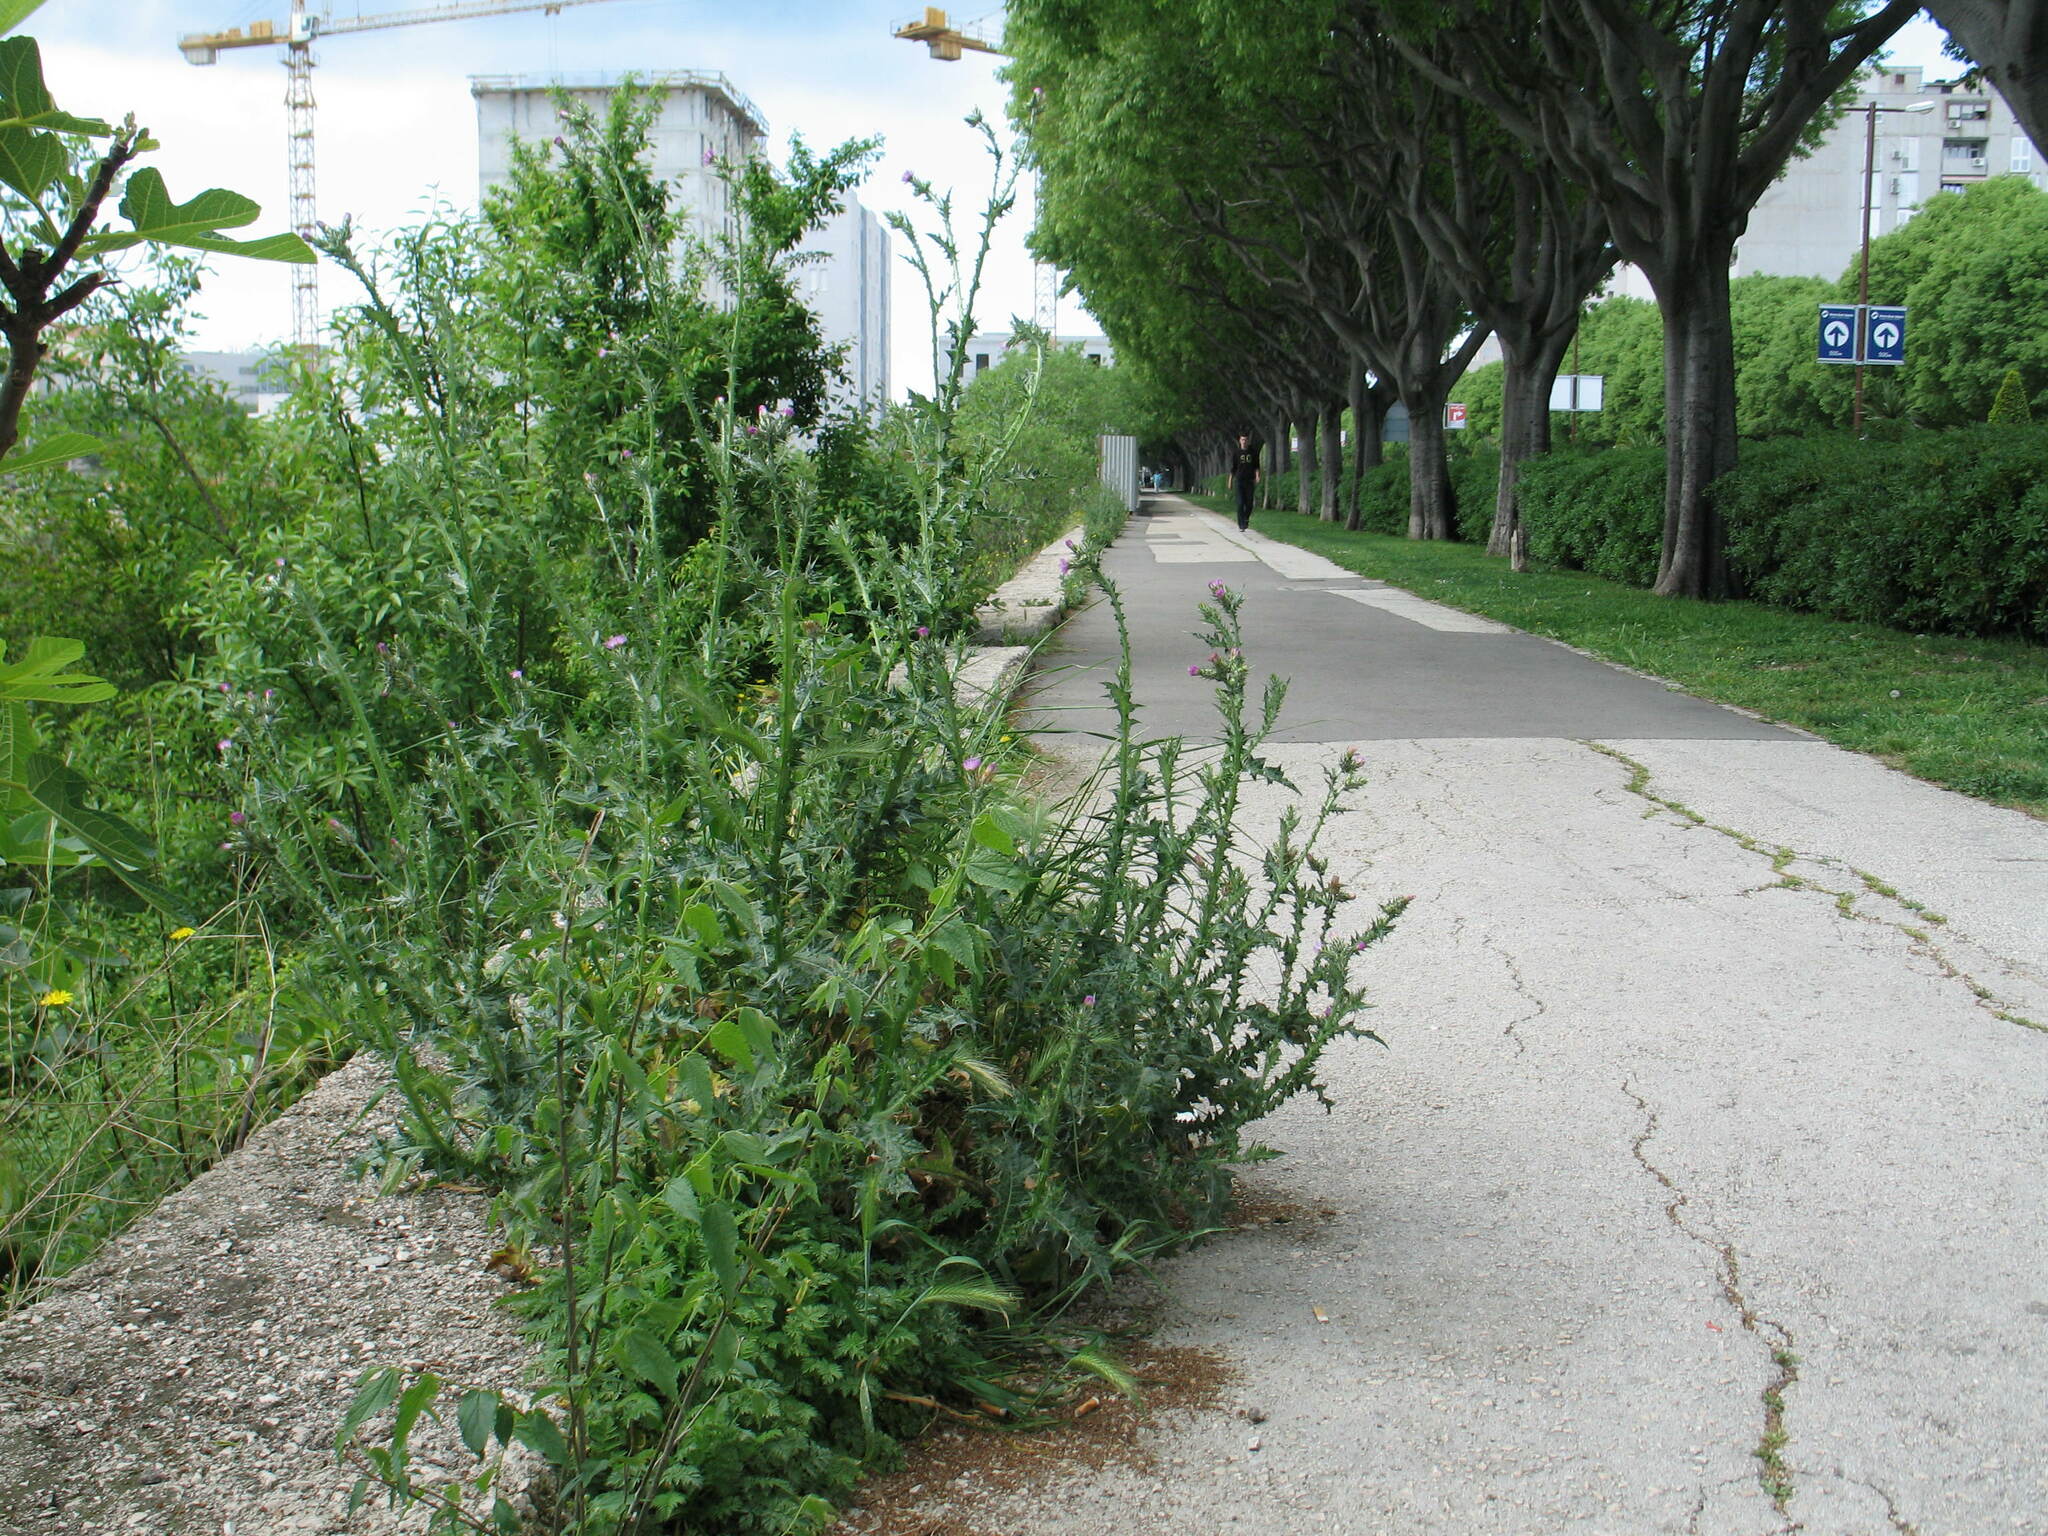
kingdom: Plantae
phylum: Tracheophyta
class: Magnoliopsida
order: Asterales
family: Asteraceae
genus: Carduus
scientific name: Carduus pycnocephalus
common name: Plymouth thistle
